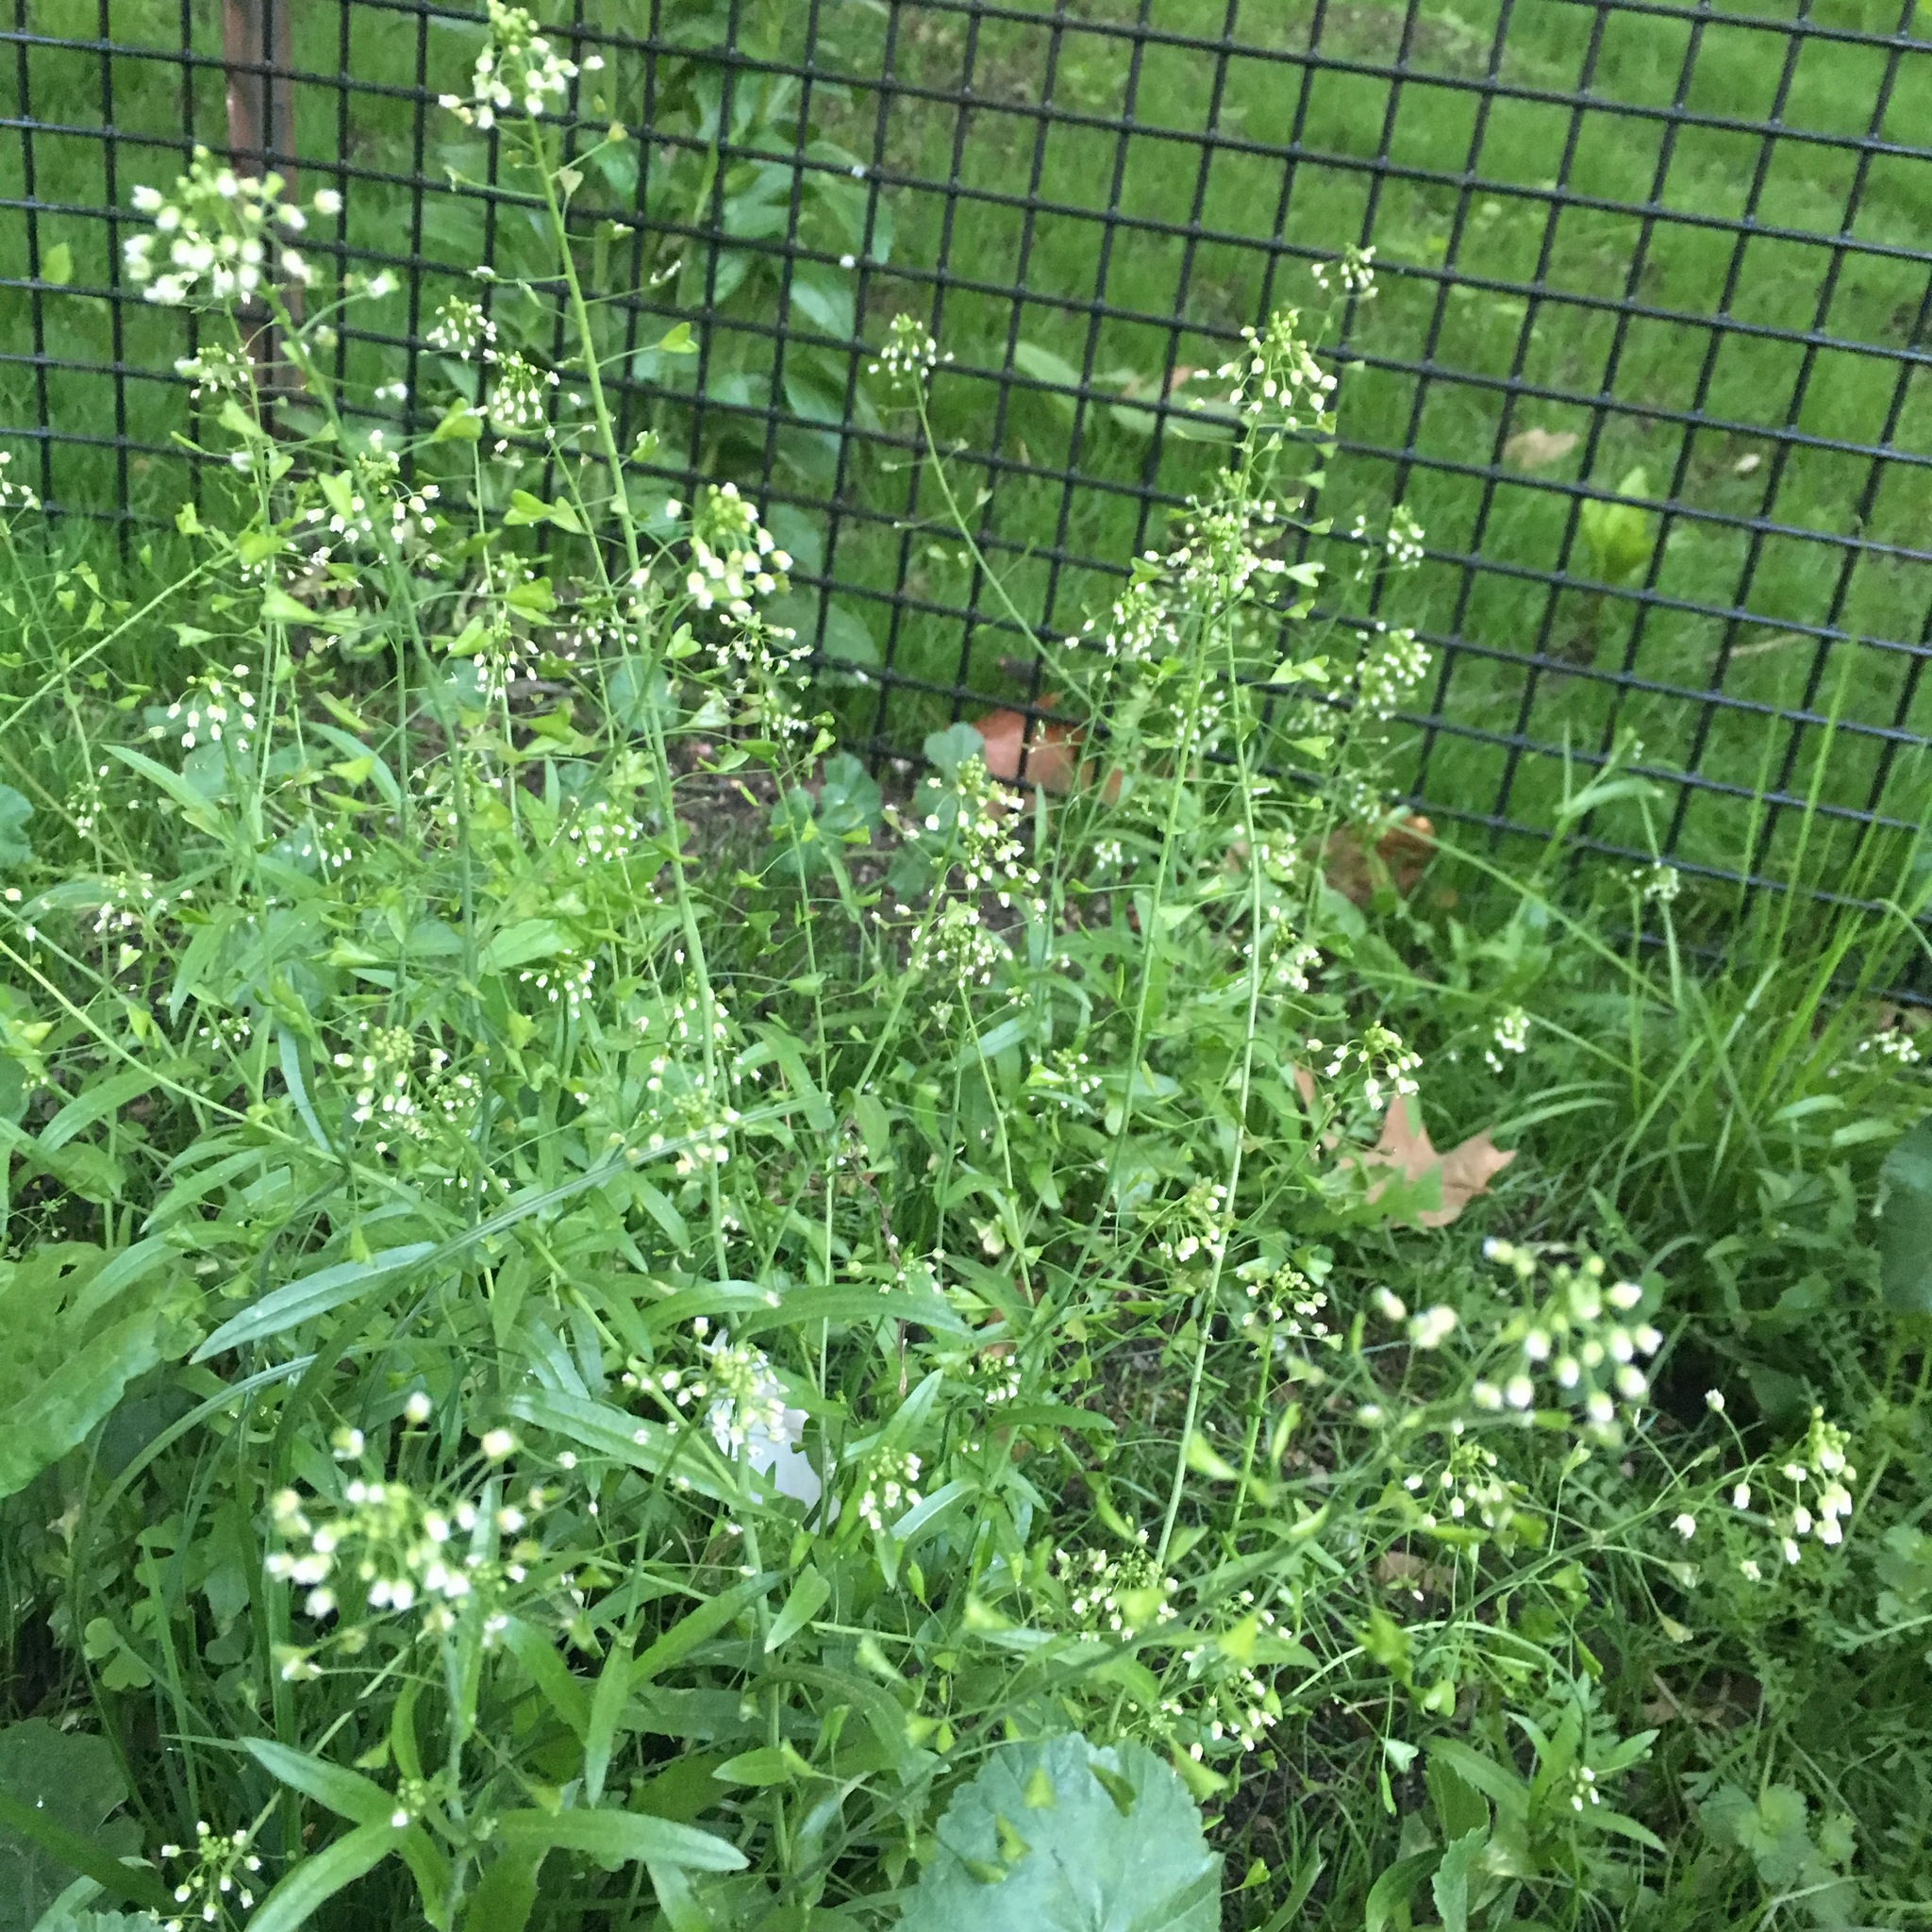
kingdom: Plantae
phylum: Tracheophyta
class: Magnoliopsida
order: Brassicales
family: Brassicaceae
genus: Capsella
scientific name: Capsella bursa-pastoris
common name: Shepherd's purse
